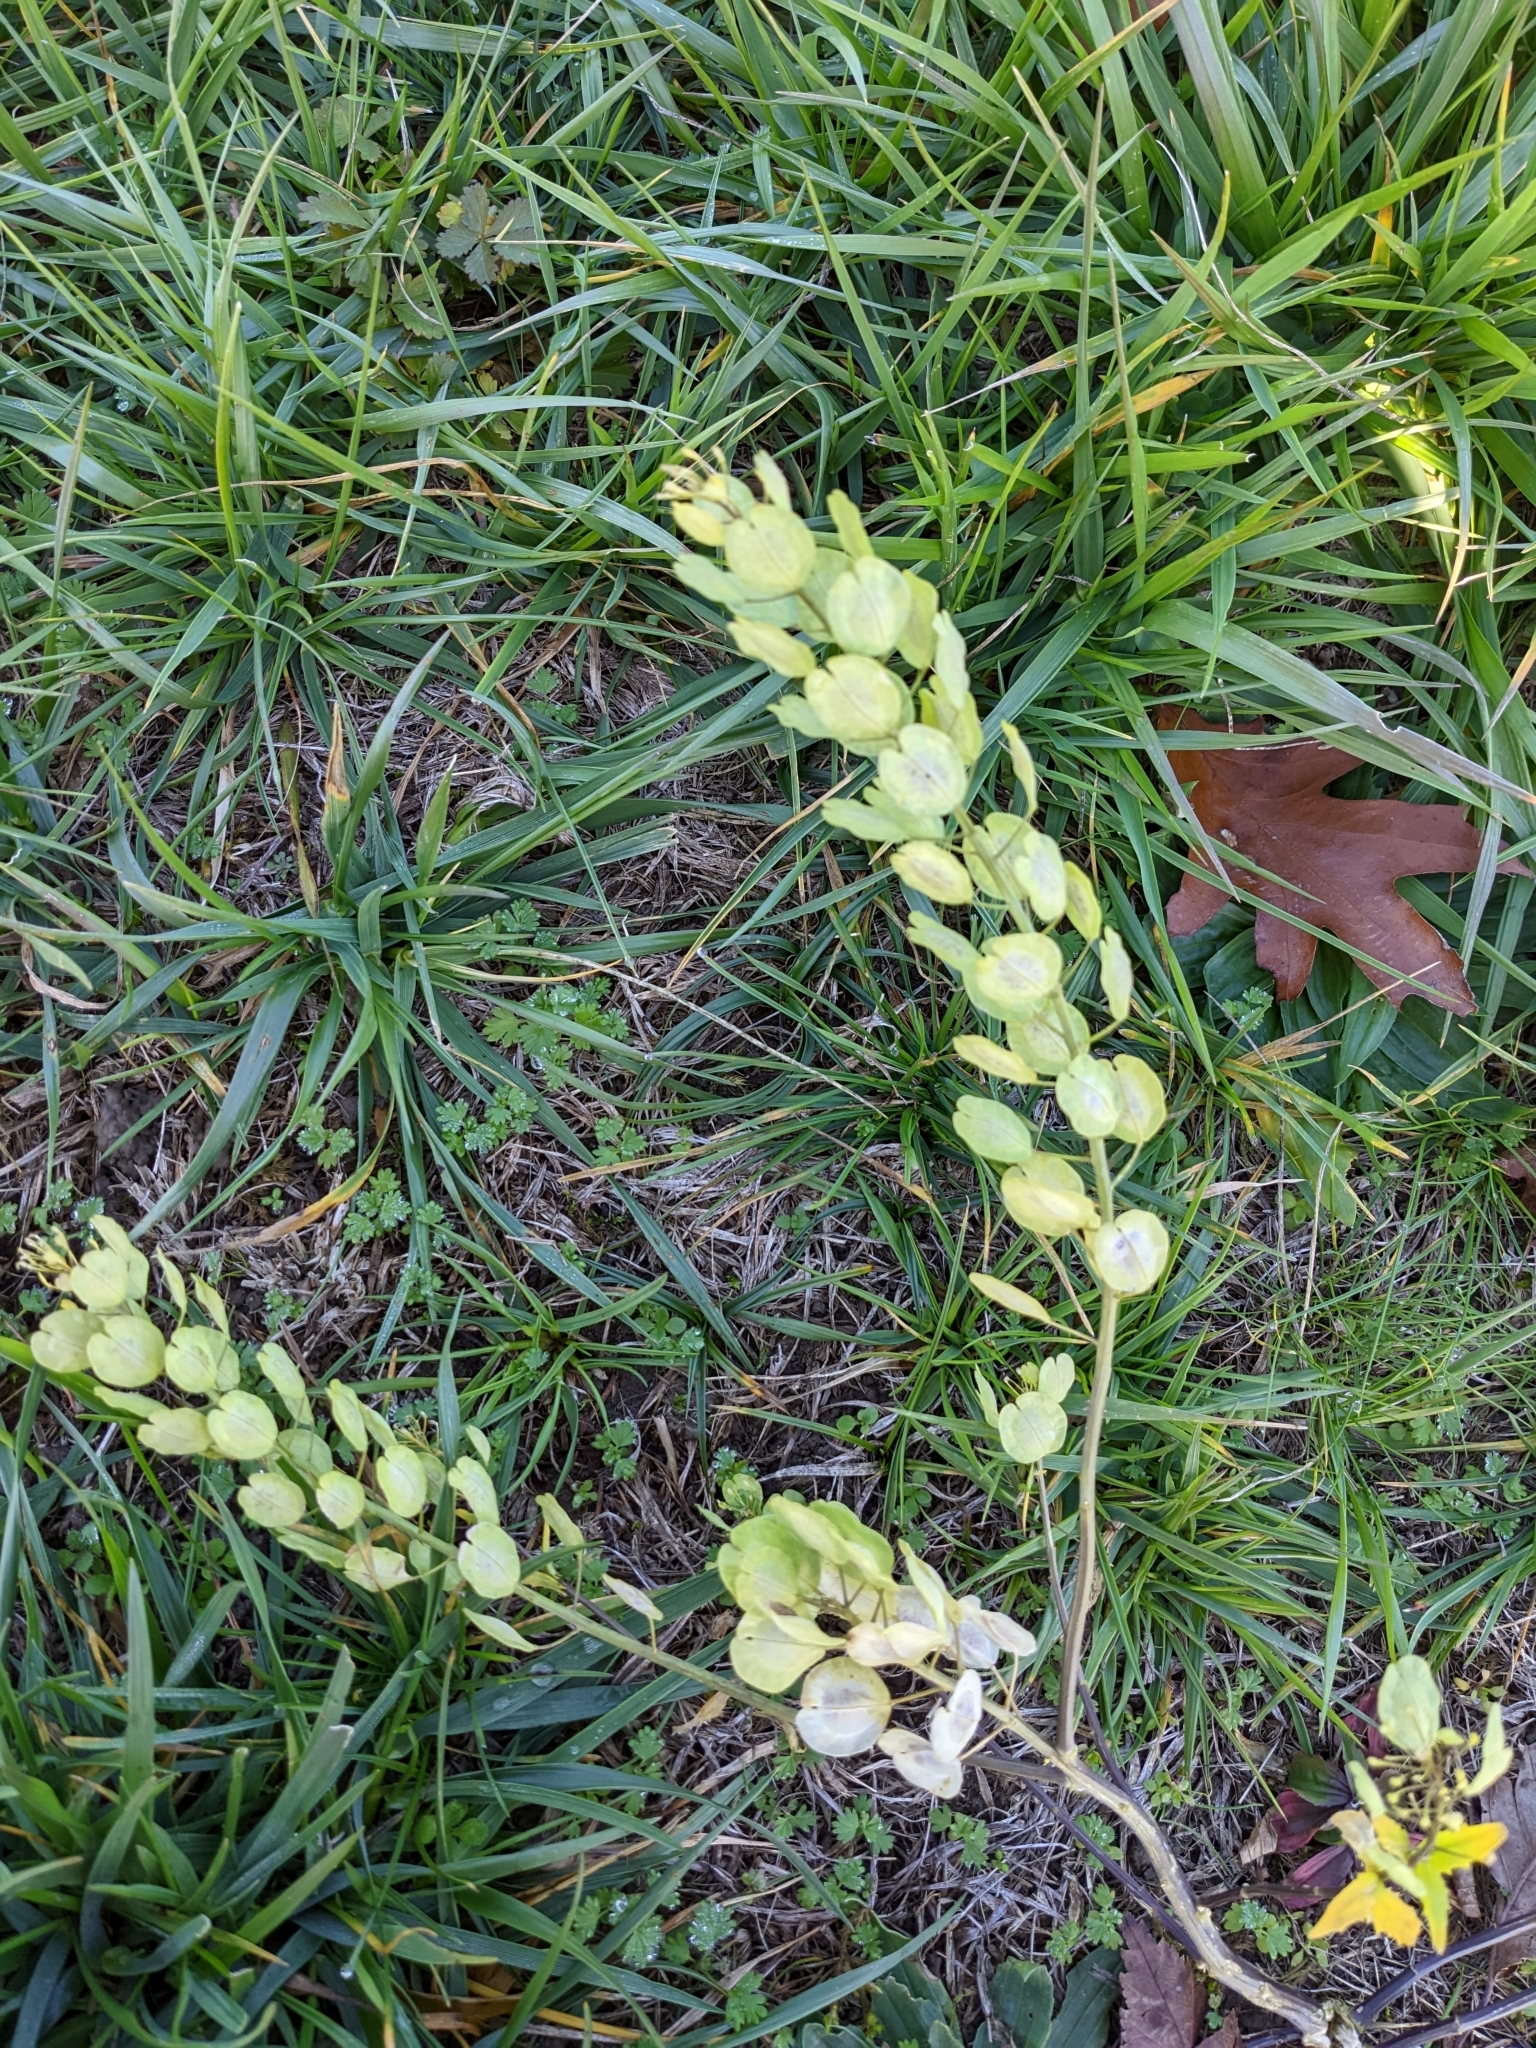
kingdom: Plantae
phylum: Tracheophyta
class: Magnoliopsida
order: Brassicales
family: Brassicaceae
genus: Thlaspi
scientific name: Thlaspi arvense
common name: Field pennycress
